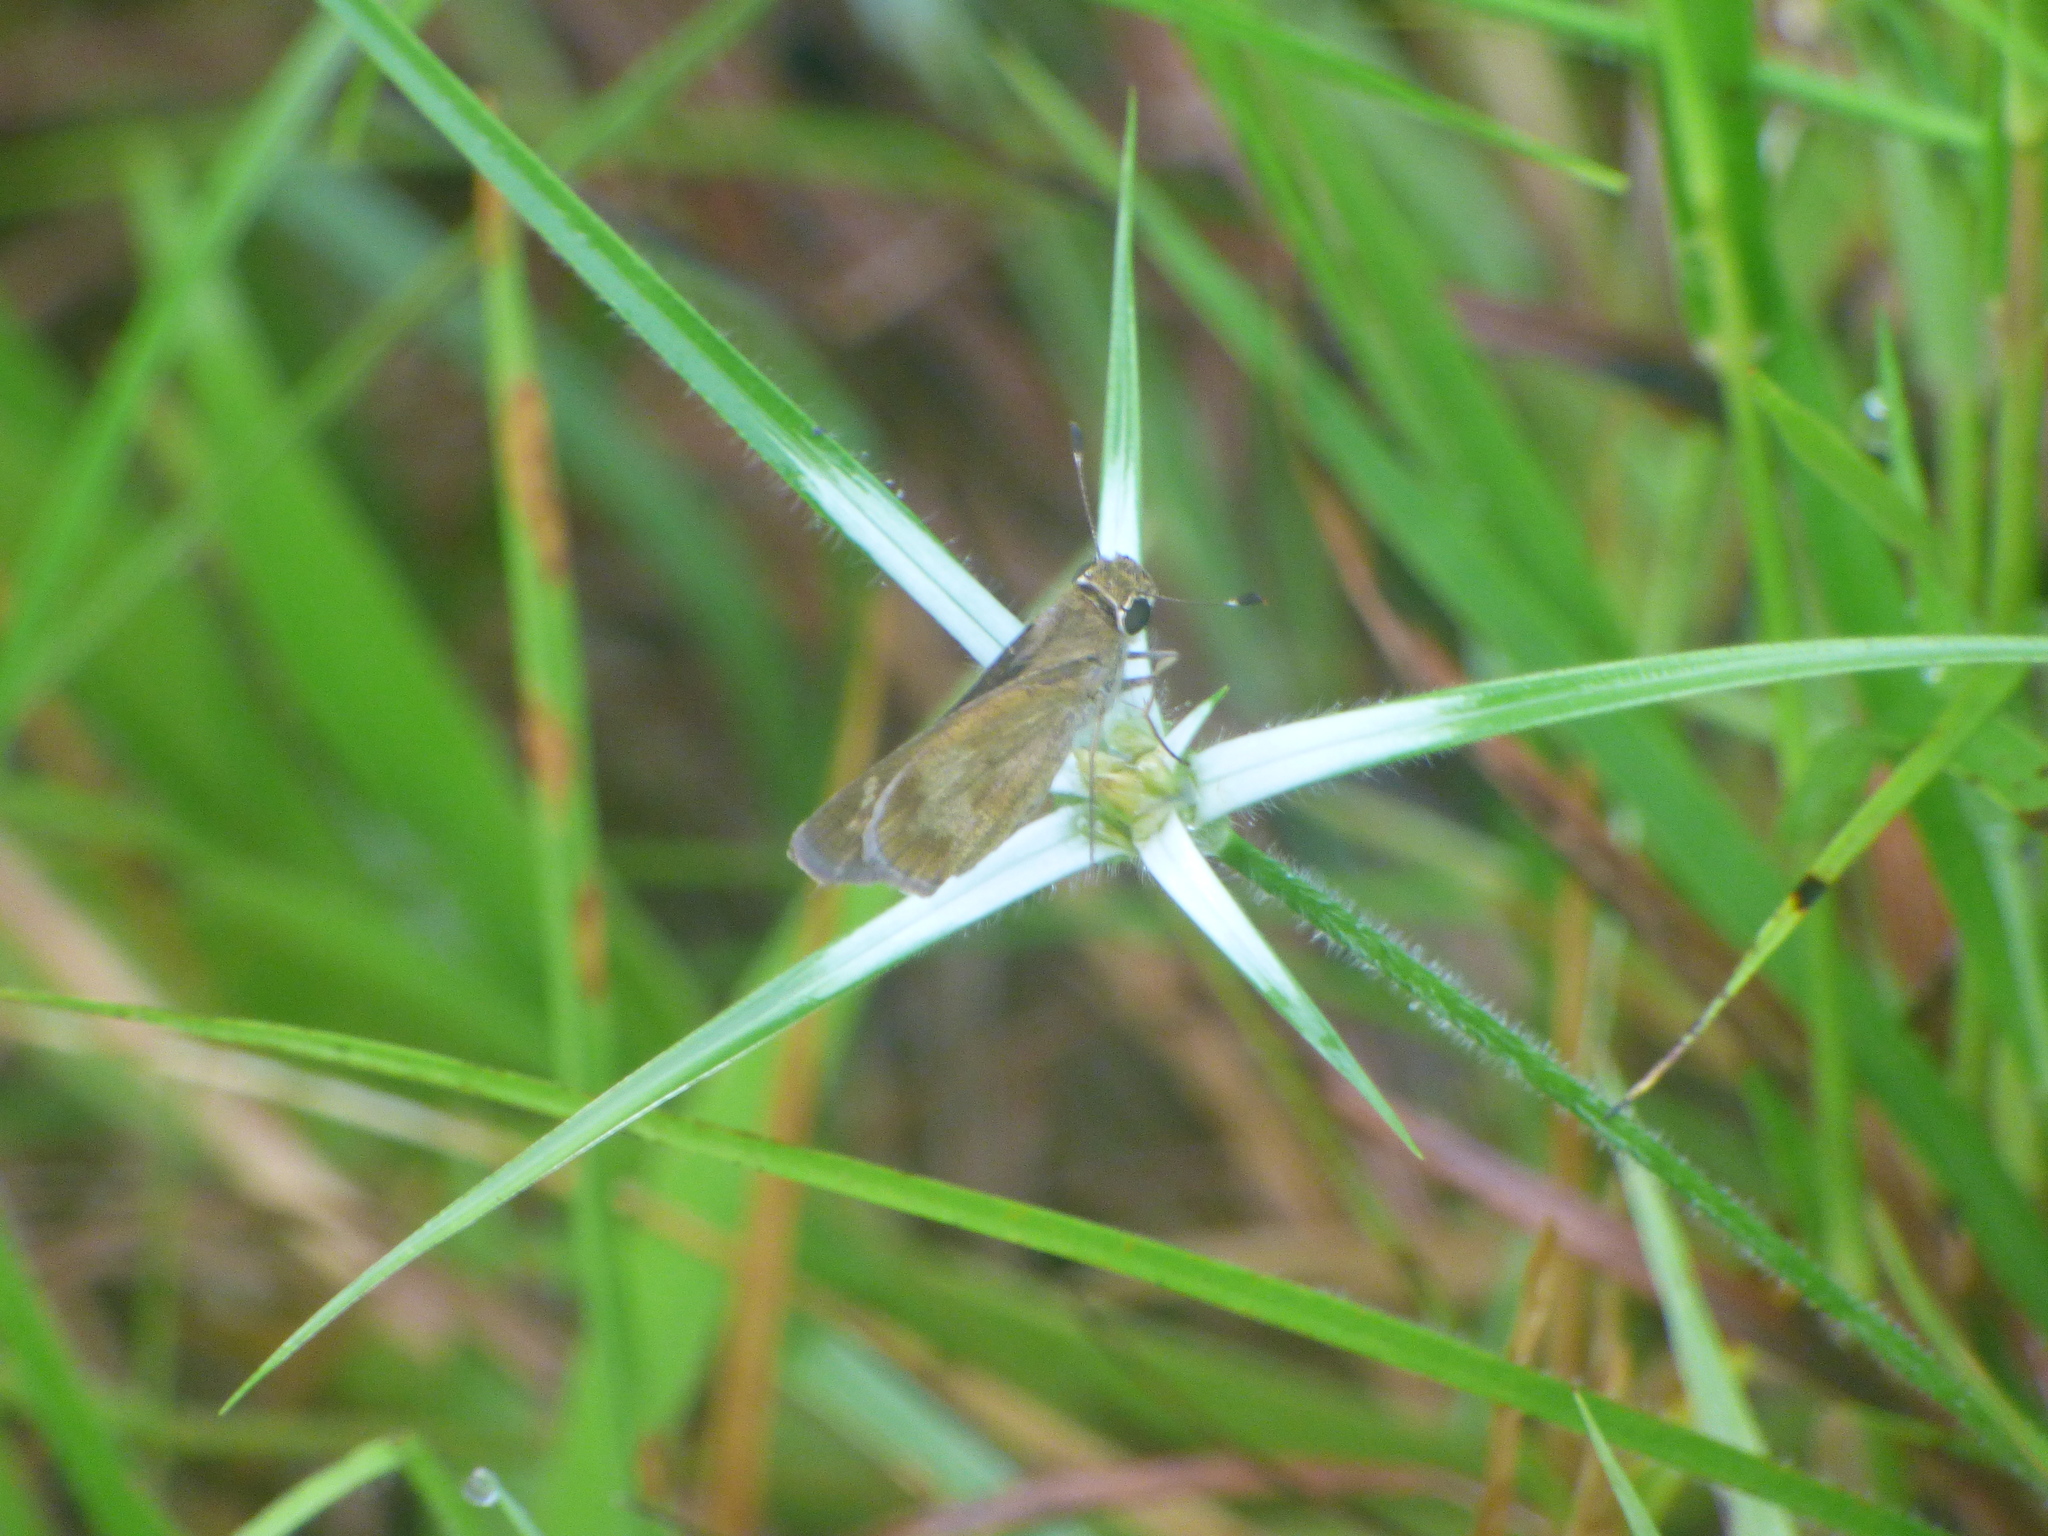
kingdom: Animalia
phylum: Arthropoda
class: Insecta
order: Lepidoptera
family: Hesperiidae
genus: Calpodes
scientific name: Calpodes ethlius
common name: Brazilian skipper
